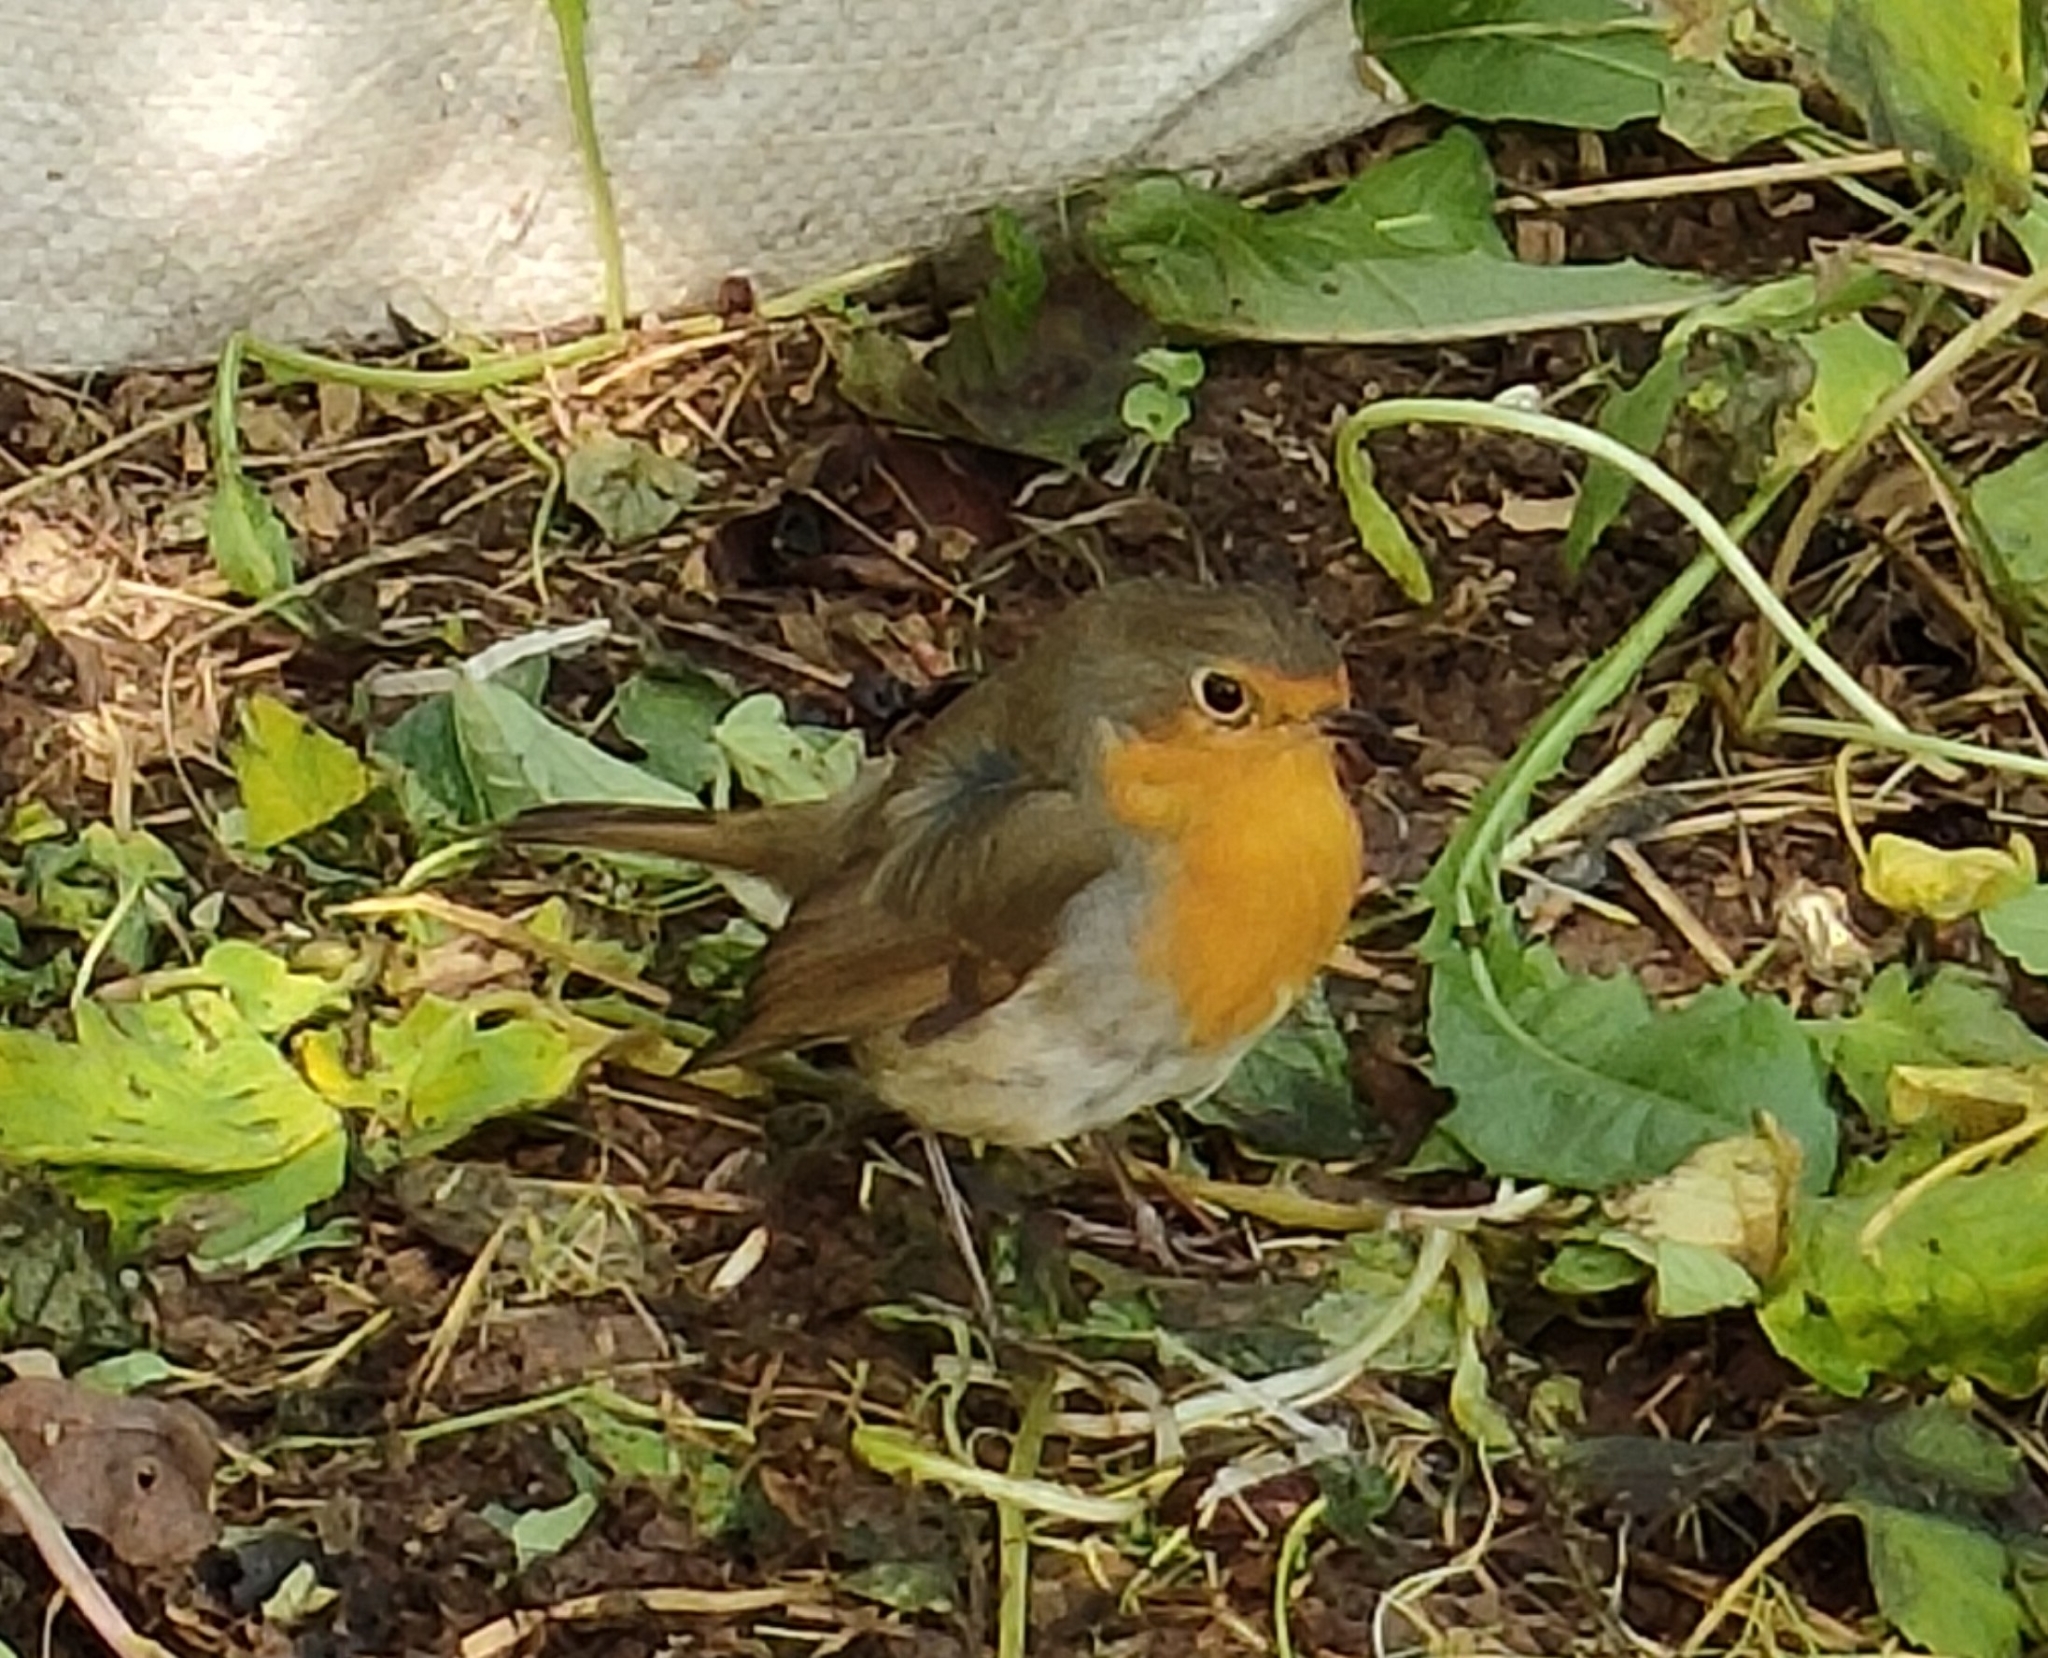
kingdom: Animalia
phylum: Chordata
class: Aves
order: Passeriformes
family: Muscicapidae
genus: Erithacus
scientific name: Erithacus rubecula
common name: European robin
